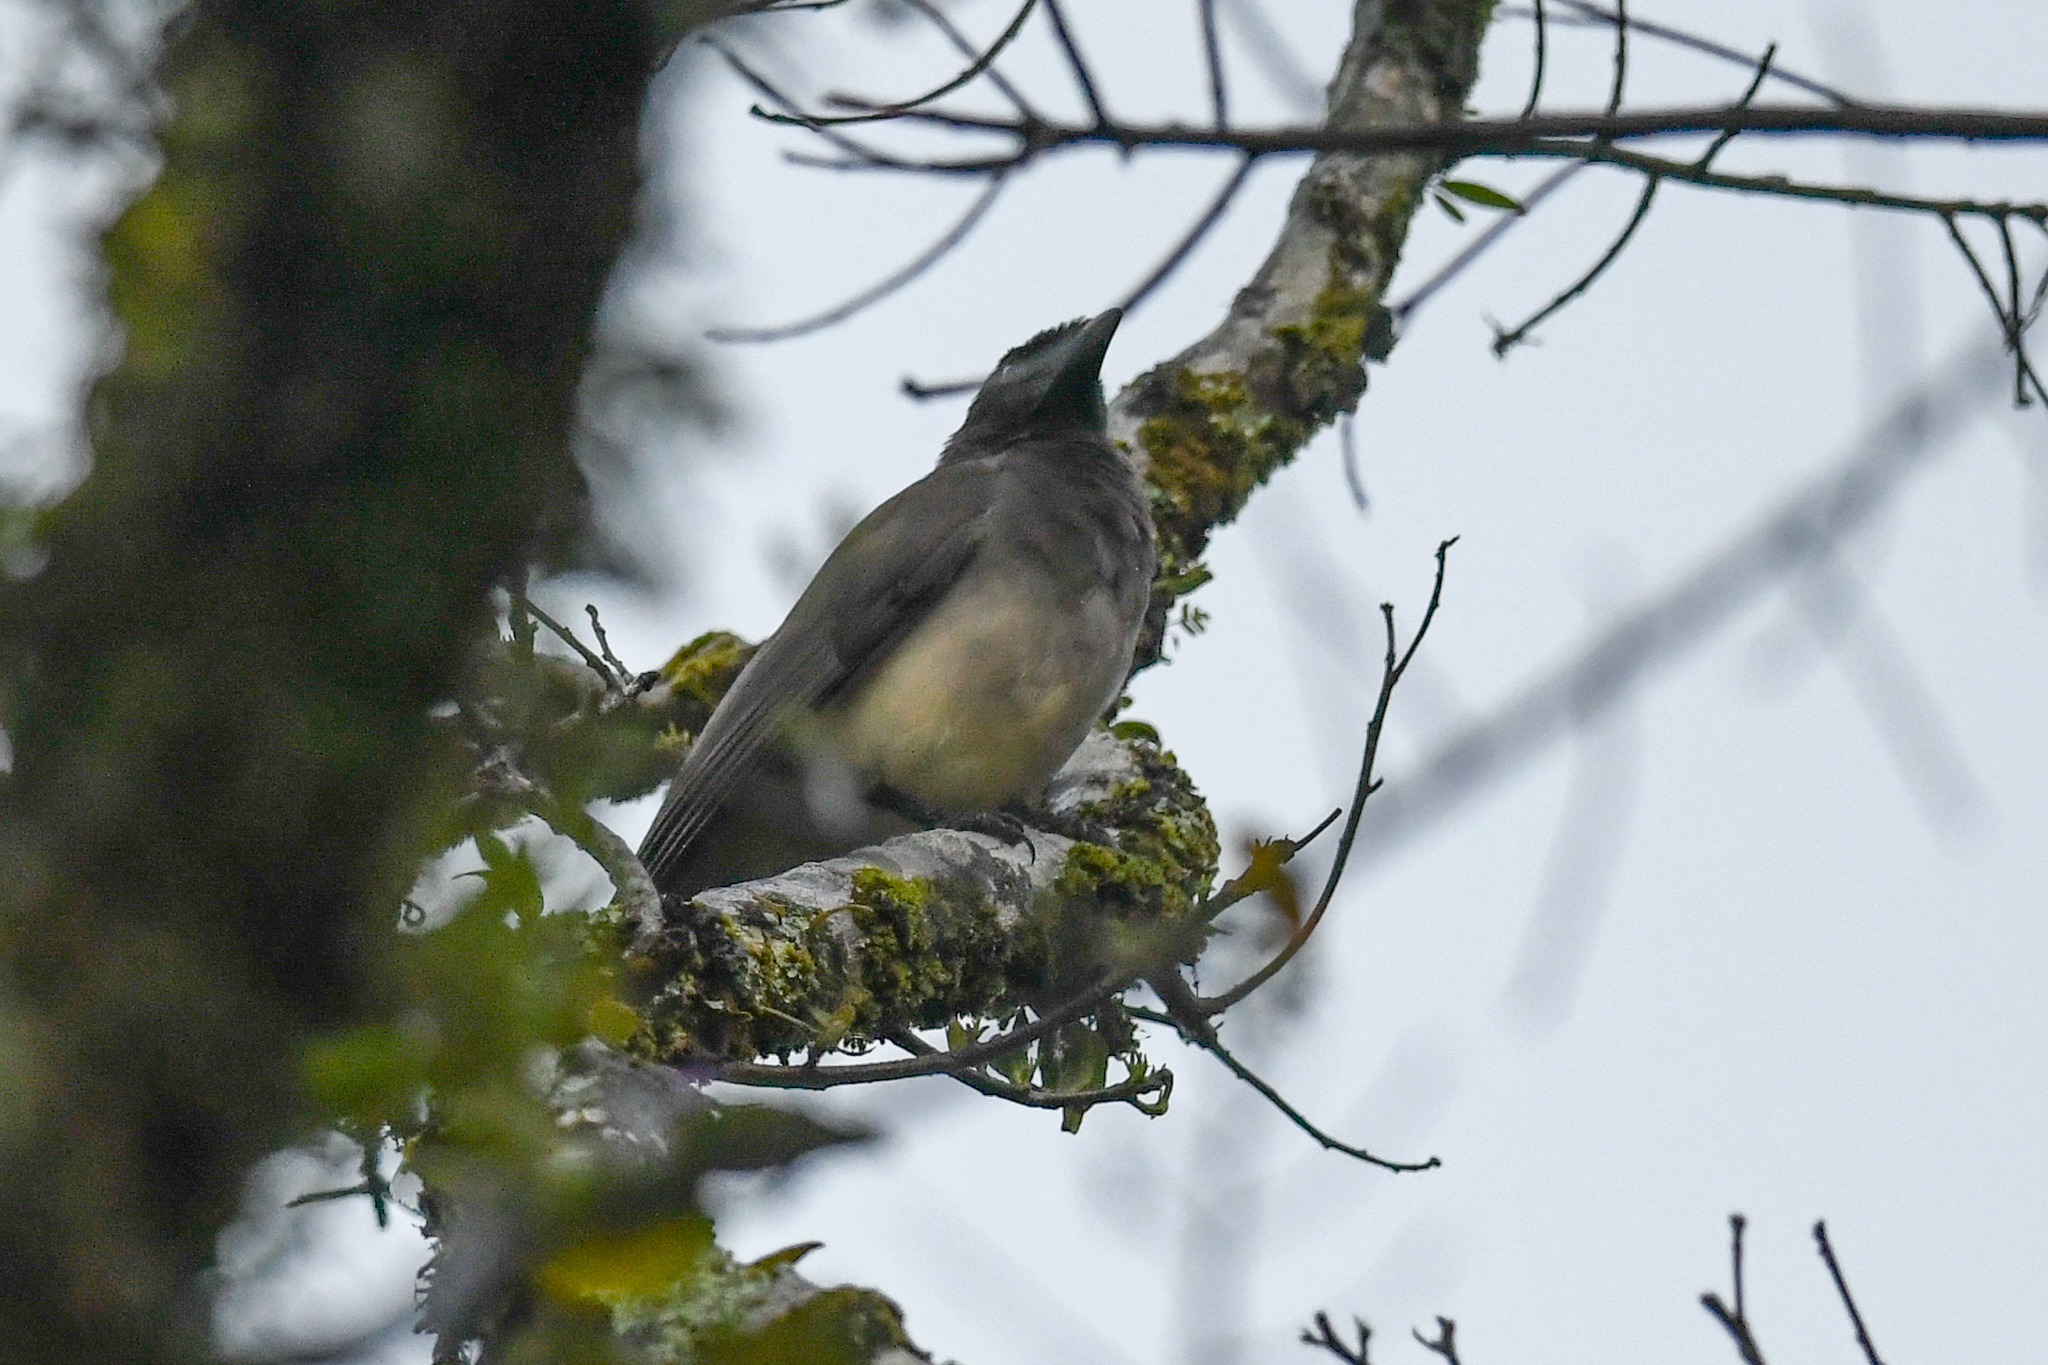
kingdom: Animalia
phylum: Chordata
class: Aves
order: Passeriformes
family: Corvidae
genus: Psilorhinus
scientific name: Psilorhinus morio
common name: Brown jay
